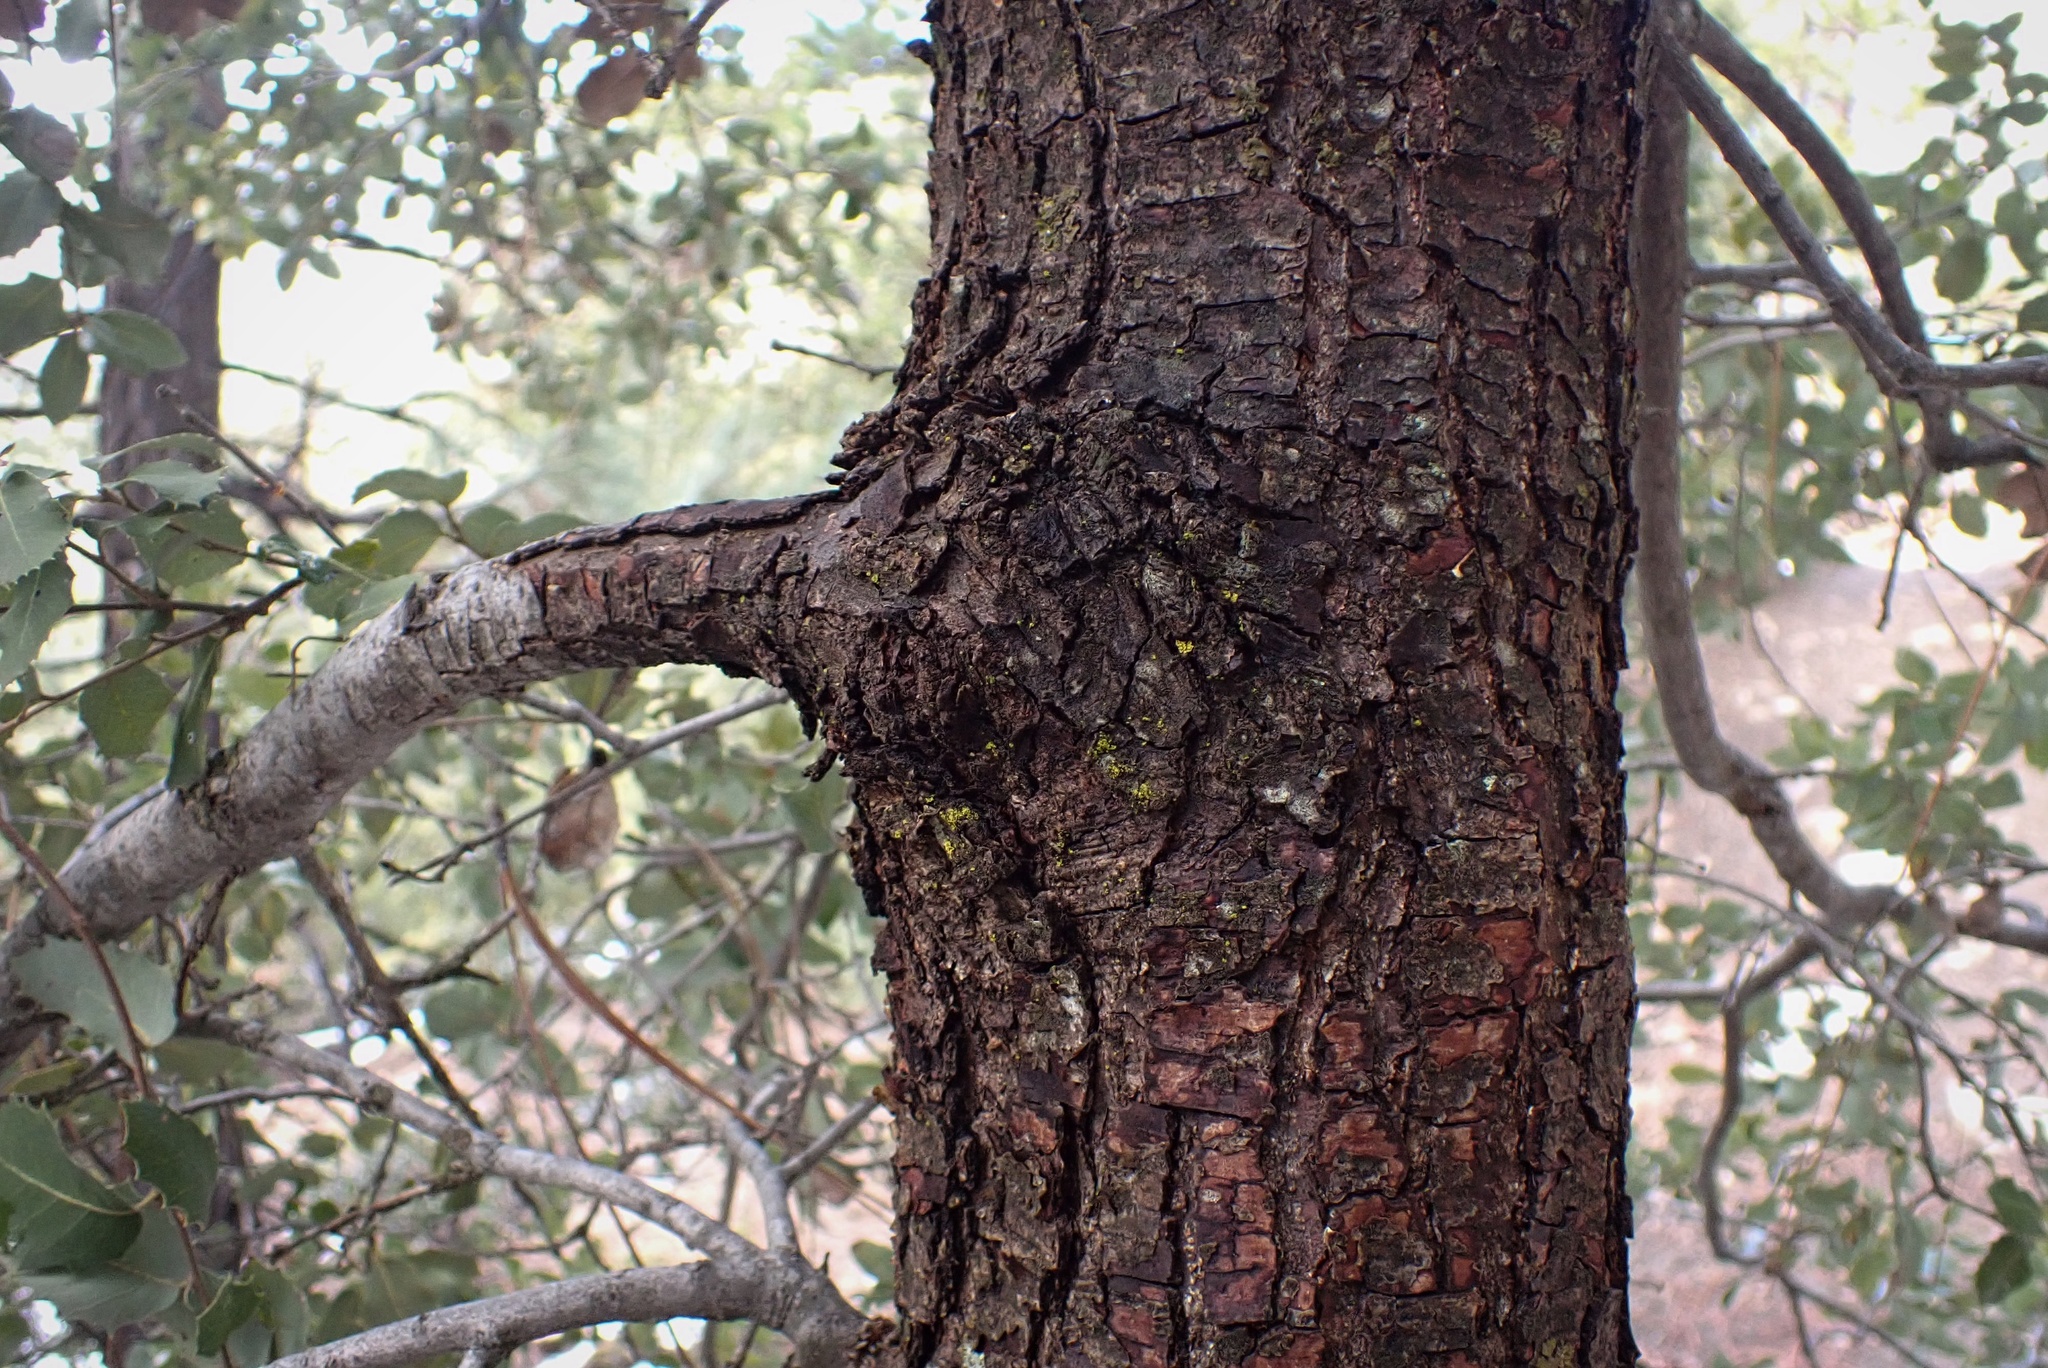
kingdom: Plantae
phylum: Tracheophyta
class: Magnoliopsida
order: Fagales
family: Fagaceae
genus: Quercus
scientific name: Quercus chrysolepis
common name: Canyon live oak
